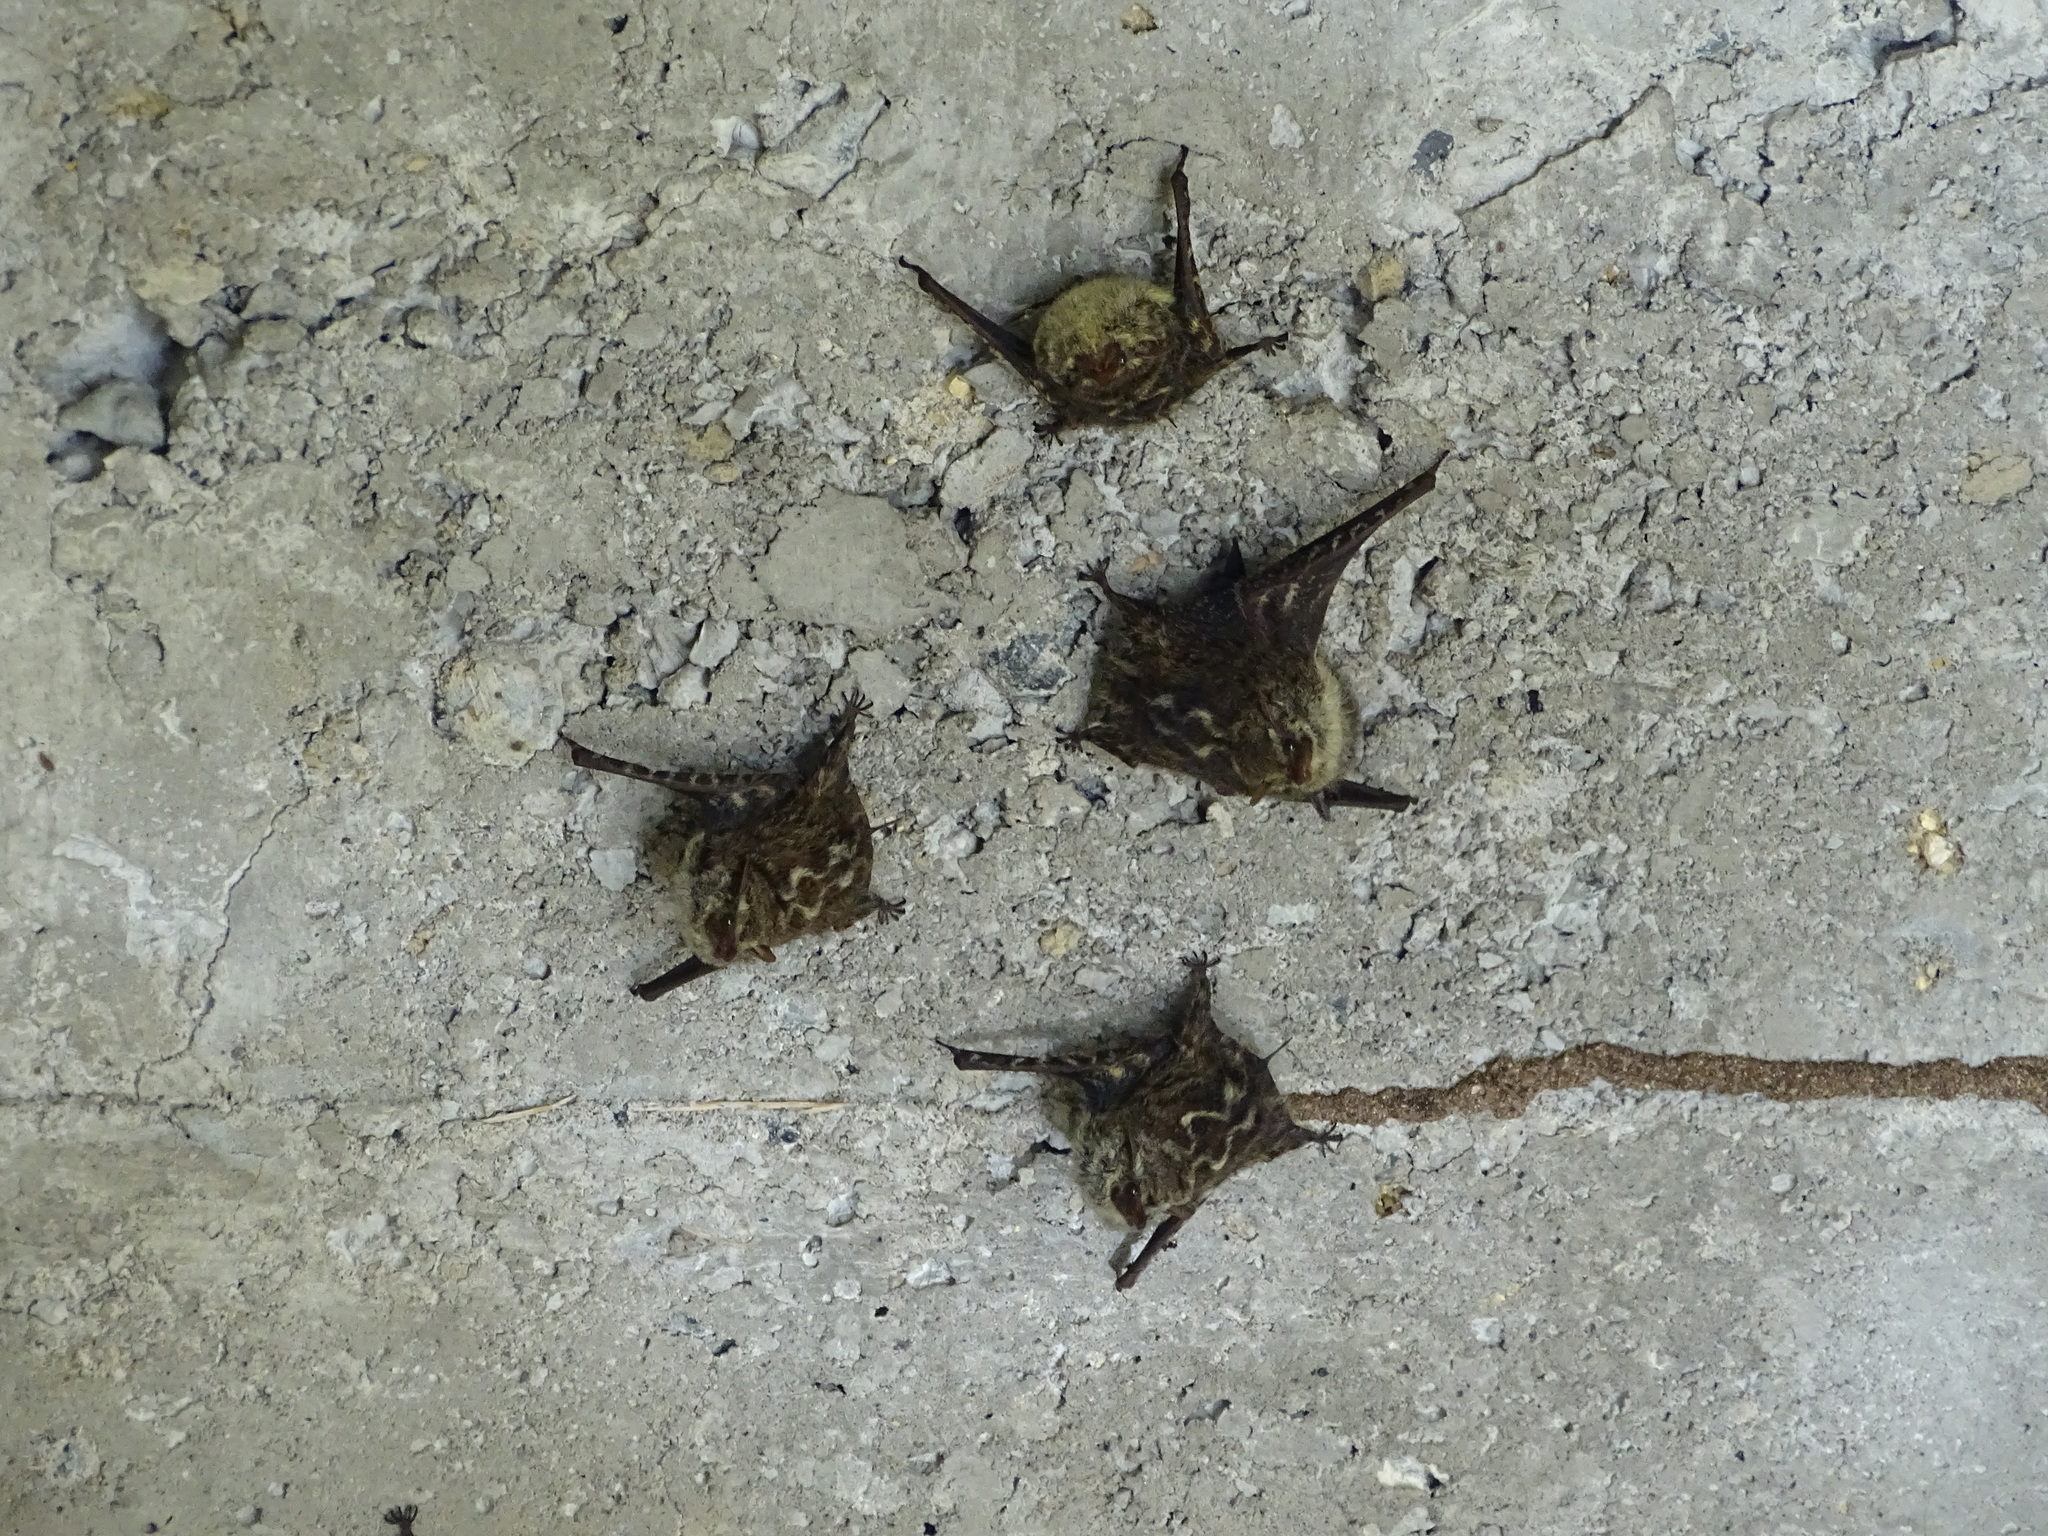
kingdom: Animalia
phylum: Chordata
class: Mammalia
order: Chiroptera
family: Emballonuridae
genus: Rhynchonycteris
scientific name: Rhynchonycteris naso
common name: Proboscis bat
